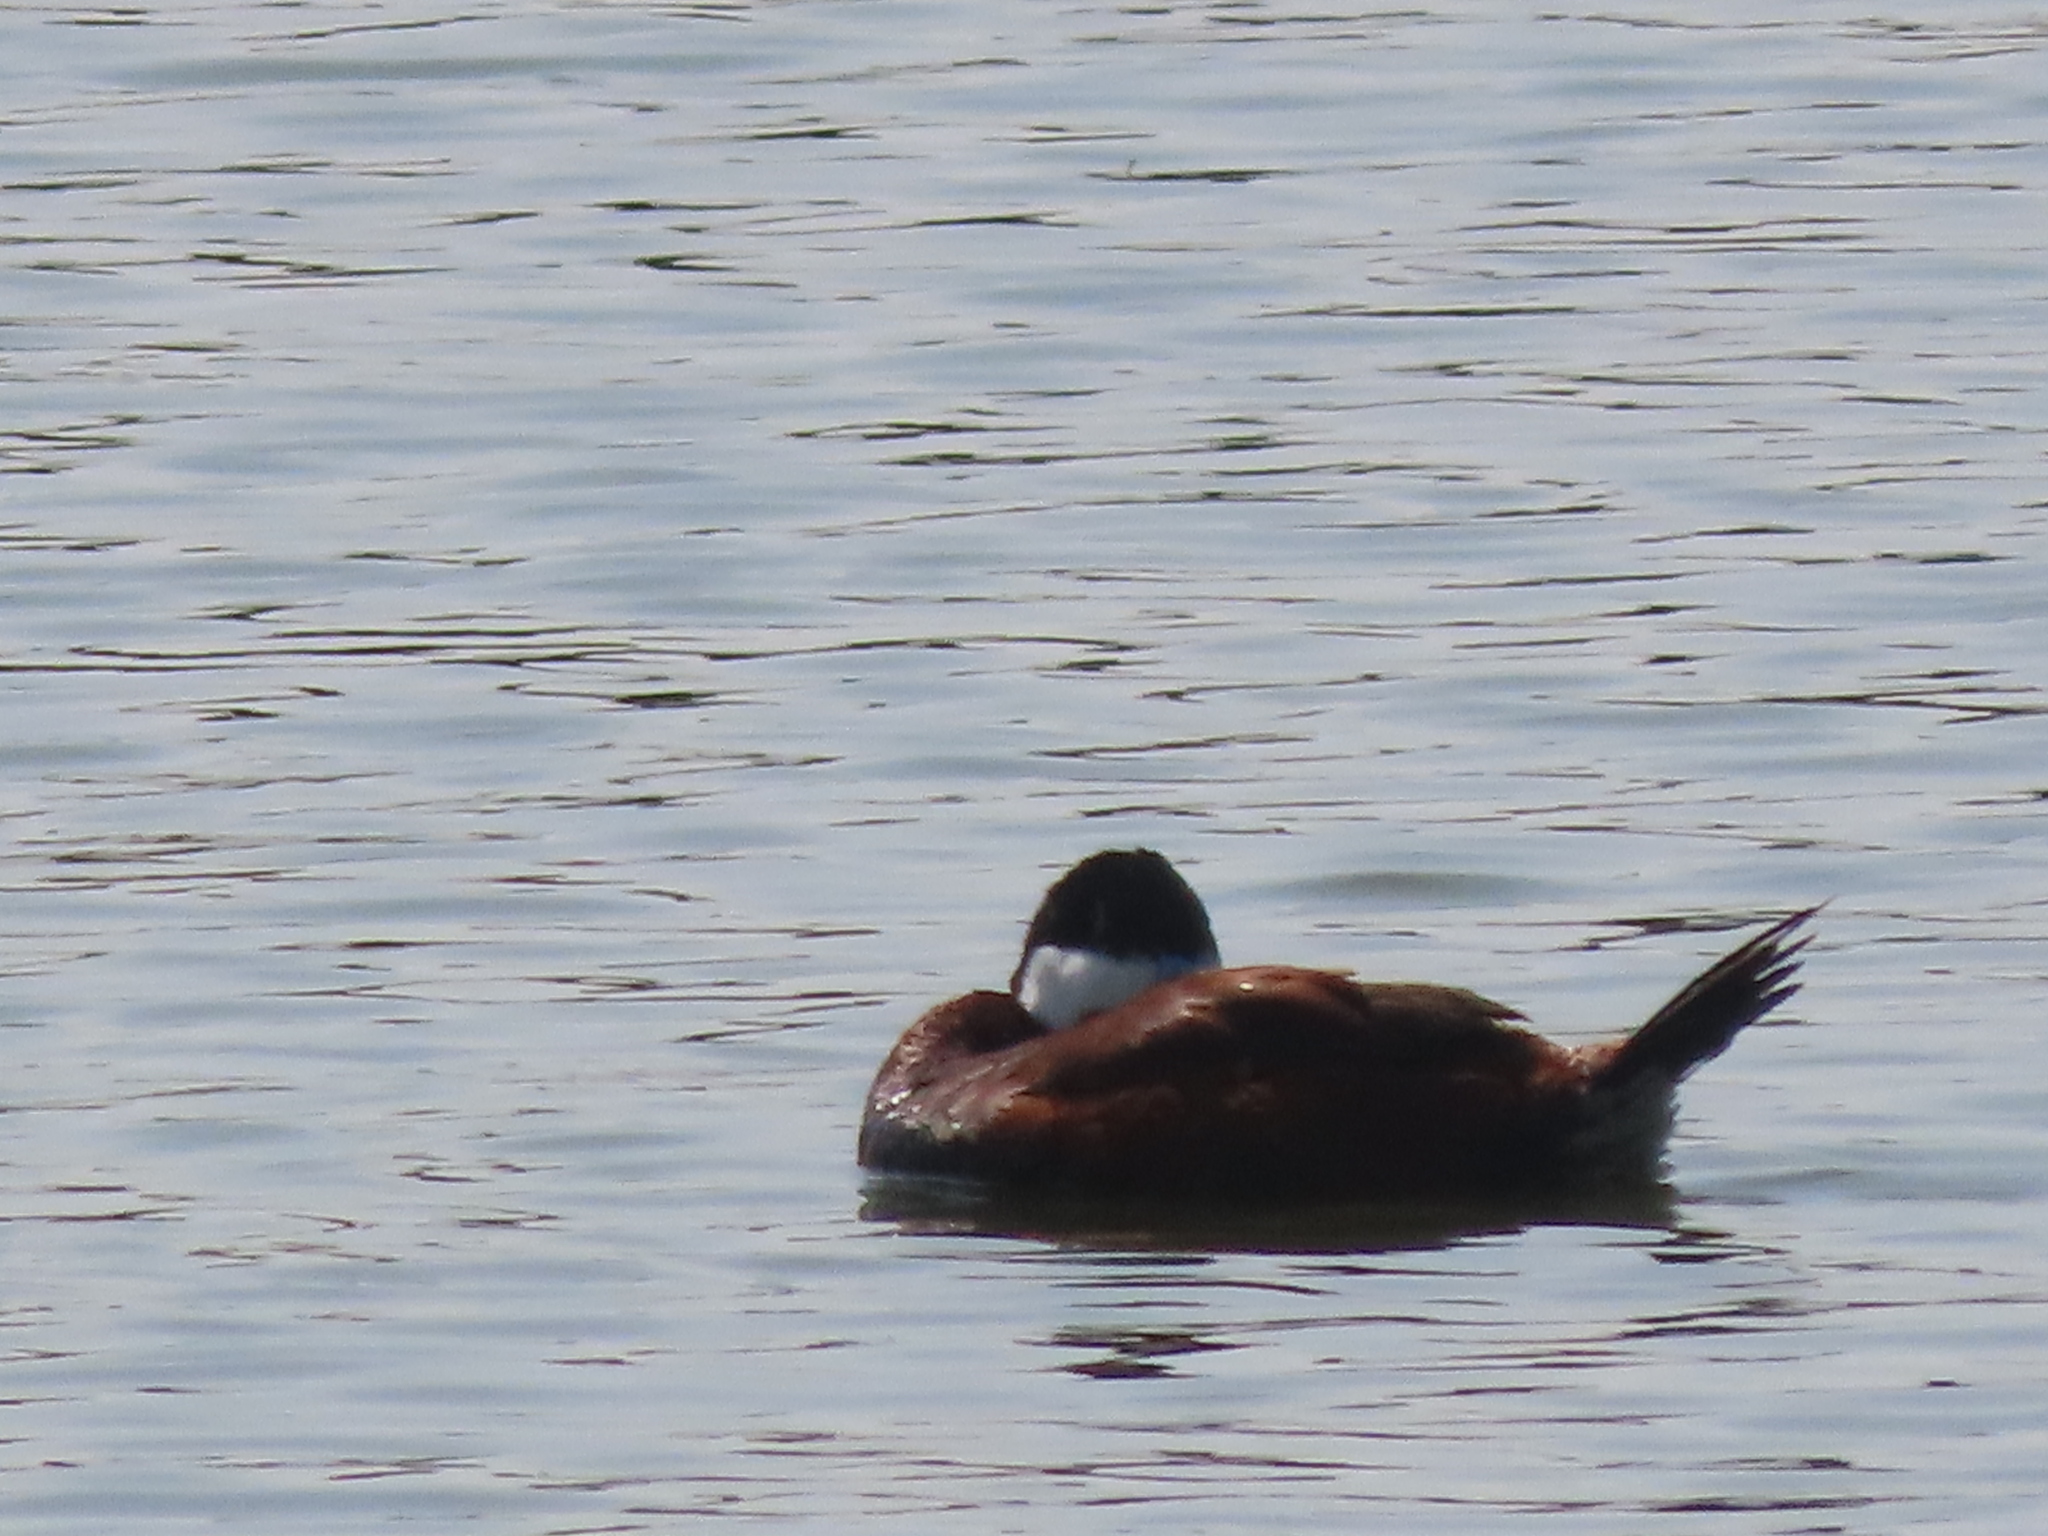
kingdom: Animalia
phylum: Chordata
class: Aves
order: Anseriformes
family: Anatidae
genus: Oxyura
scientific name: Oxyura jamaicensis
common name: Ruddy duck
